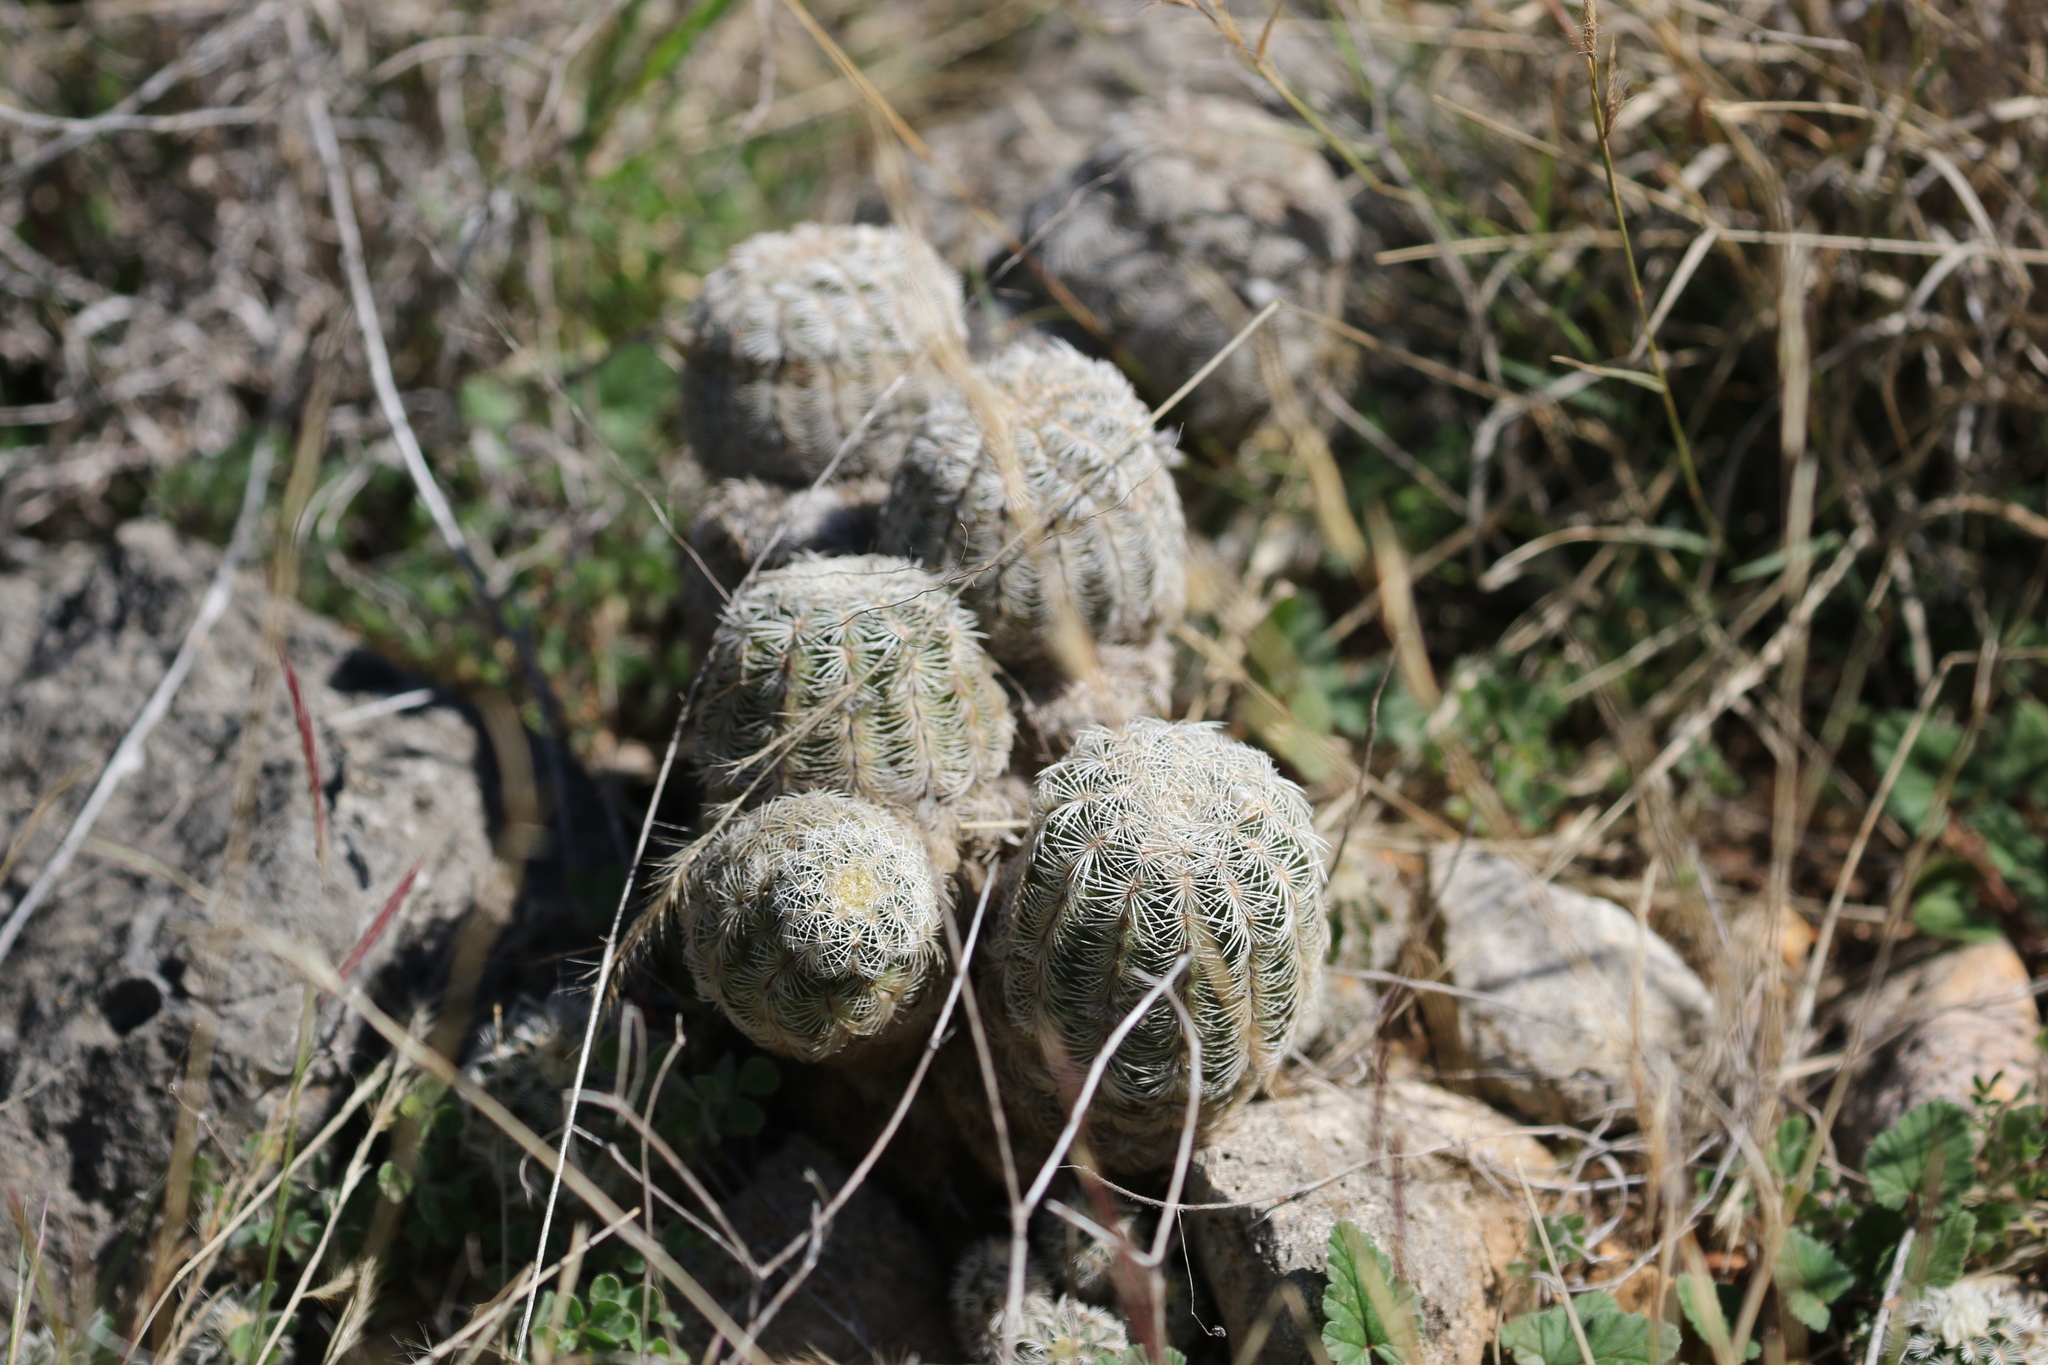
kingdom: Plantae
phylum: Tracheophyta
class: Magnoliopsida
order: Caryophyllales
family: Cactaceae
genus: Echinocereus
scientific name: Echinocereus reichenbachii
